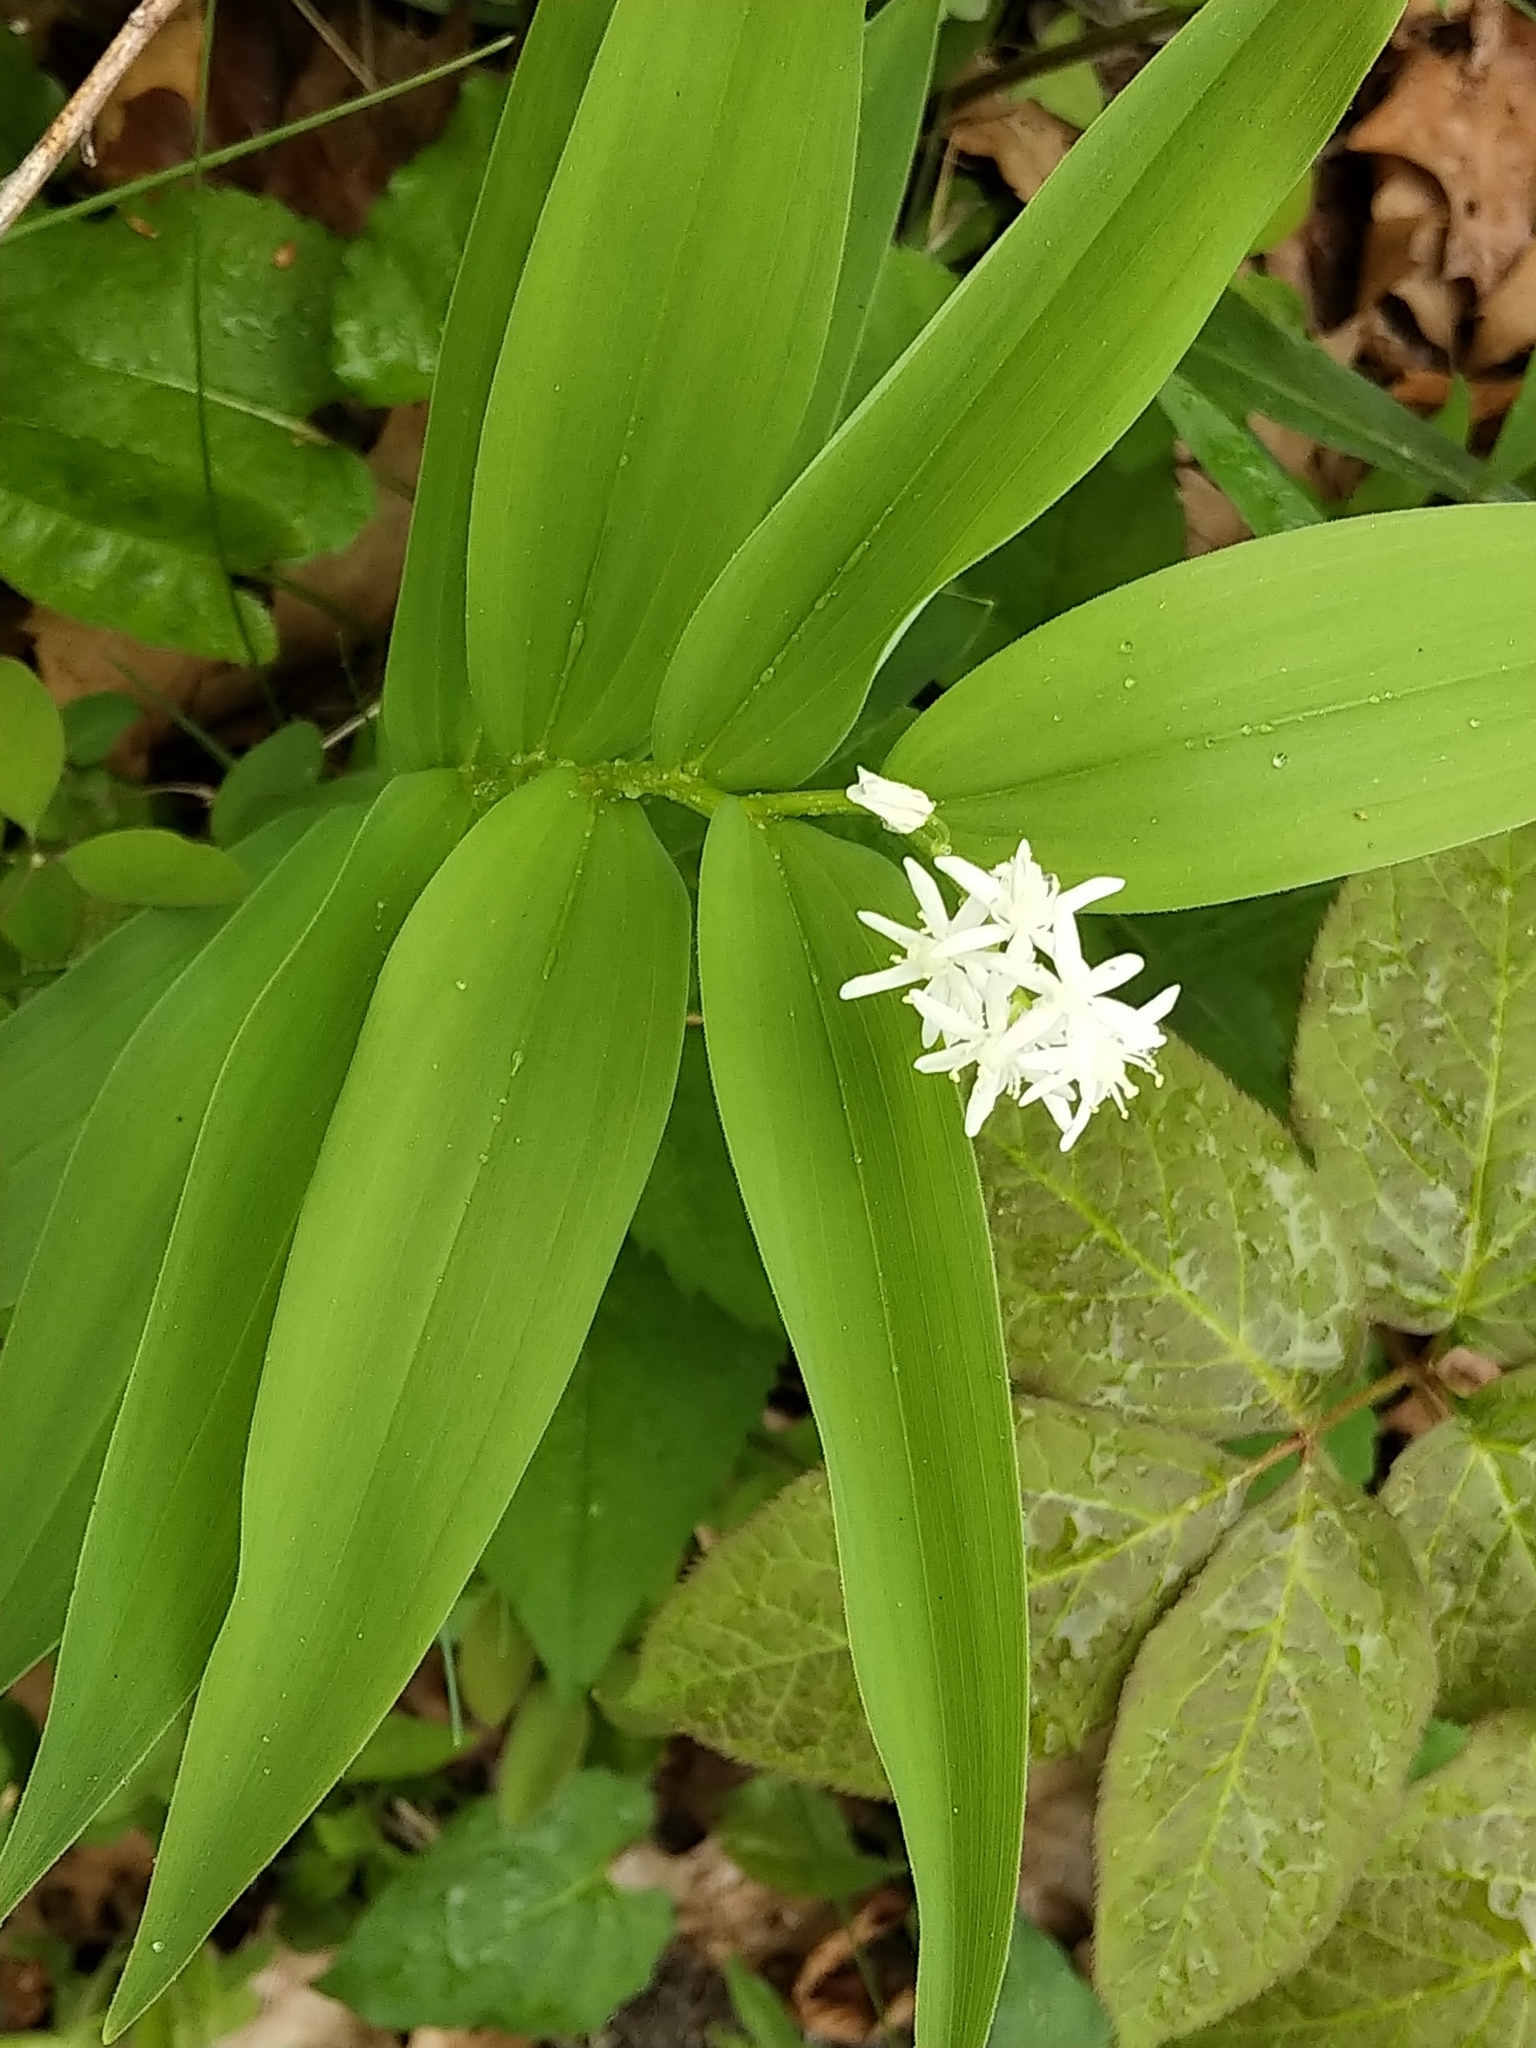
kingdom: Plantae
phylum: Tracheophyta
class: Liliopsida
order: Asparagales
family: Asparagaceae
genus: Maianthemum
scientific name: Maianthemum stellatum
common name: Little false solomon's seal
